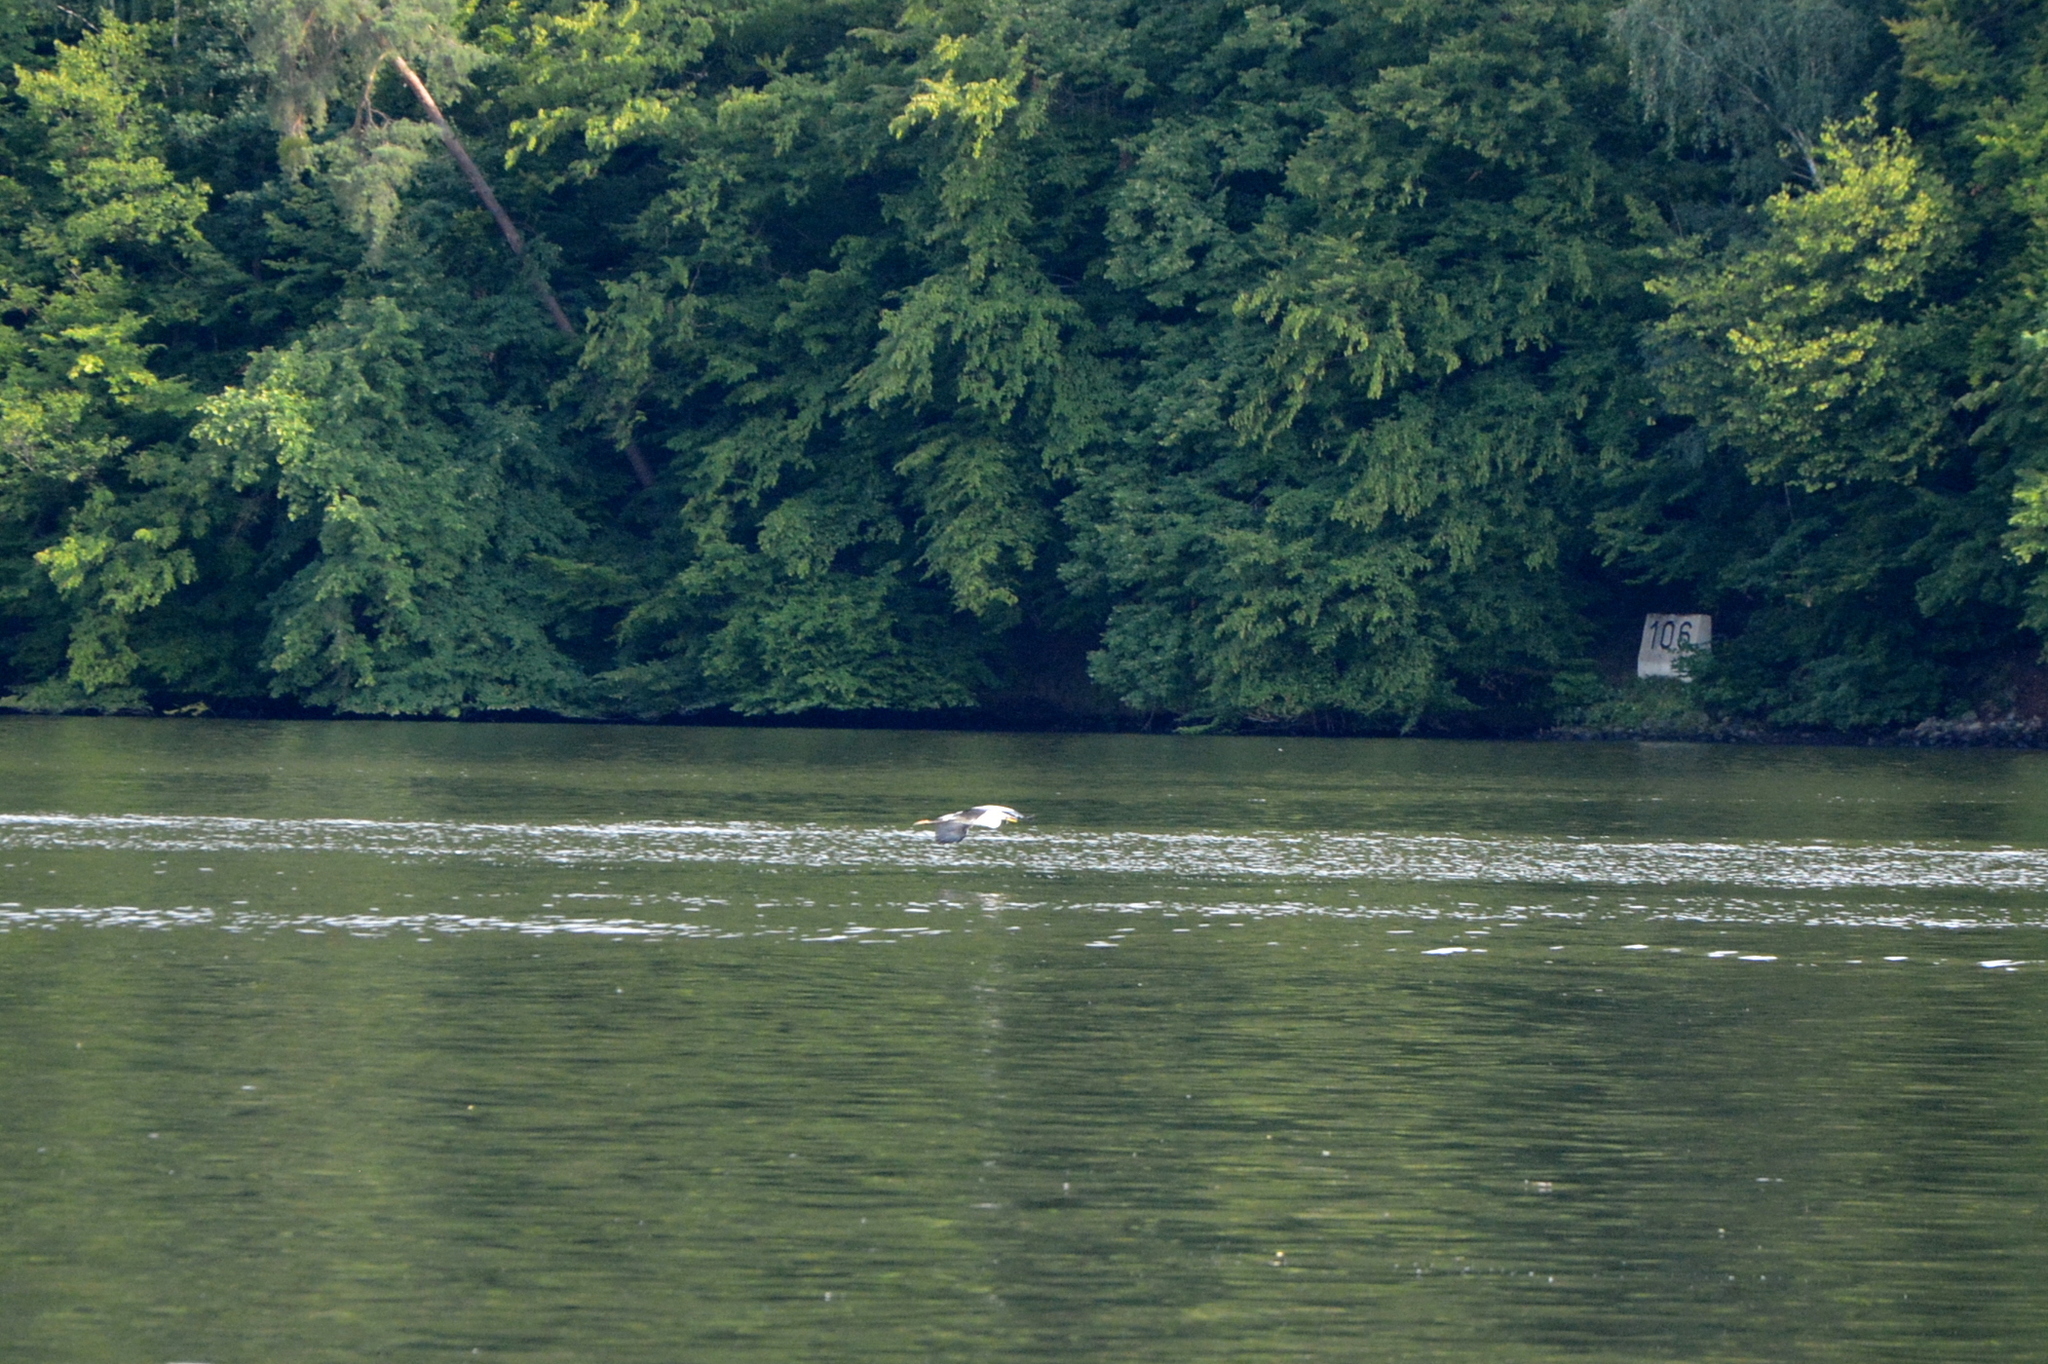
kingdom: Animalia
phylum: Chordata
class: Aves
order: Pelecaniformes
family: Ardeidae
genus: Ardea
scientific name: Ardea cinerea
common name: Grey heron
